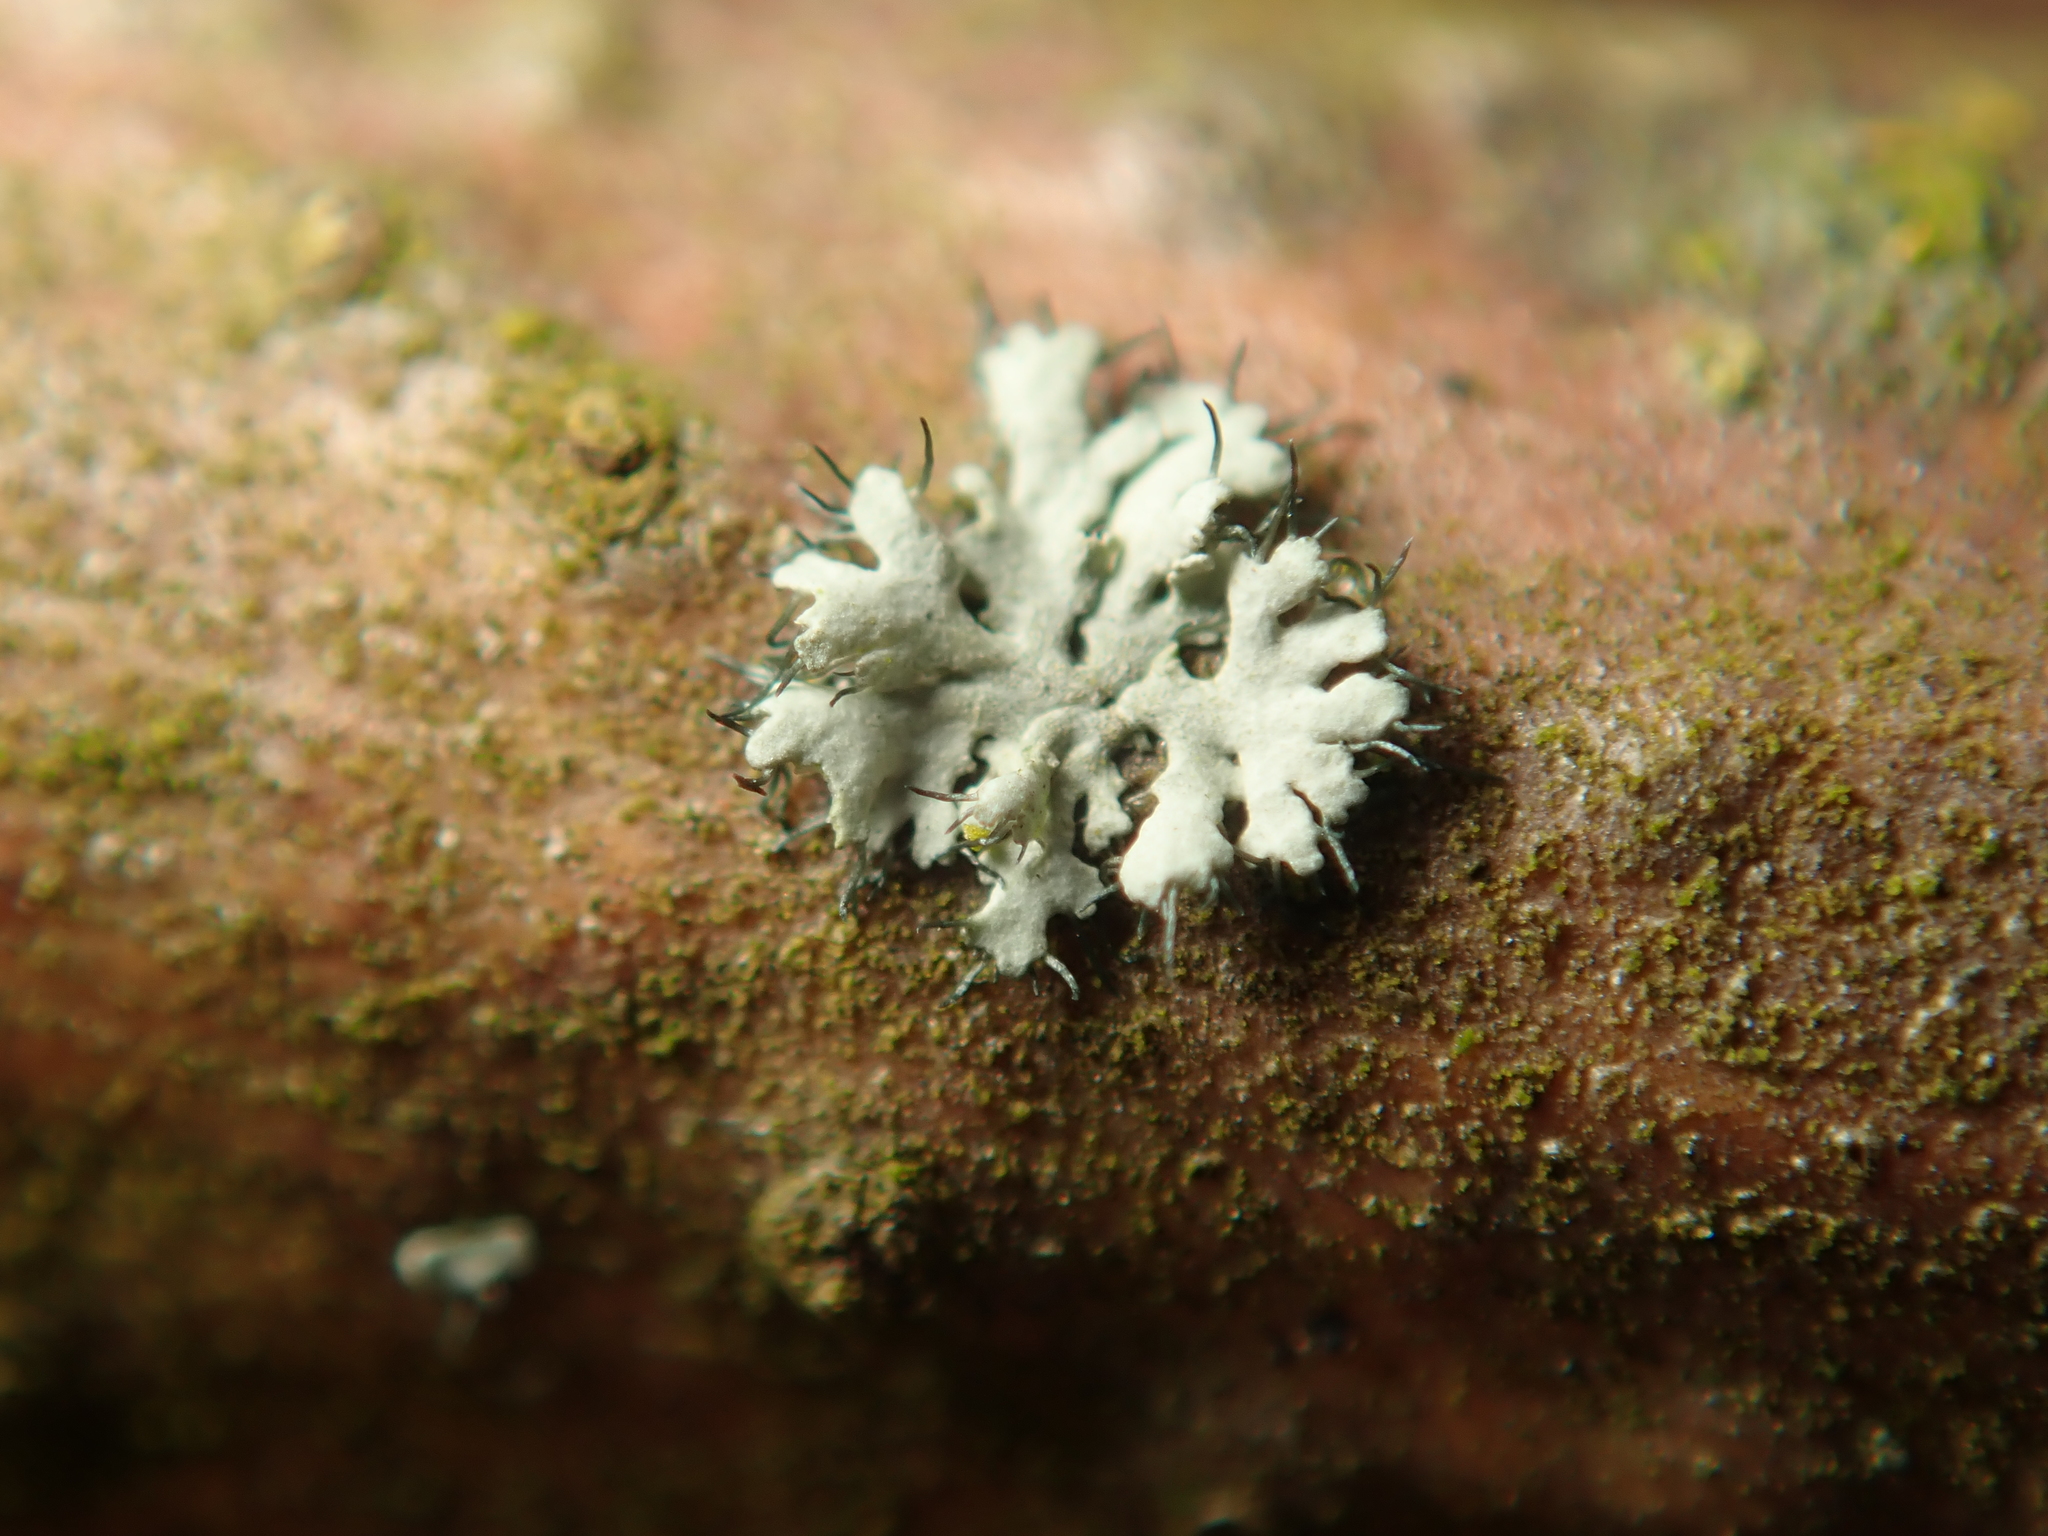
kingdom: Fungi
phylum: Ascomycota
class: Lecanoromycetes
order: Caliciales
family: Physciaceae
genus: Physcia
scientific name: Physcia adscendens
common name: Hooded rosette lichen
